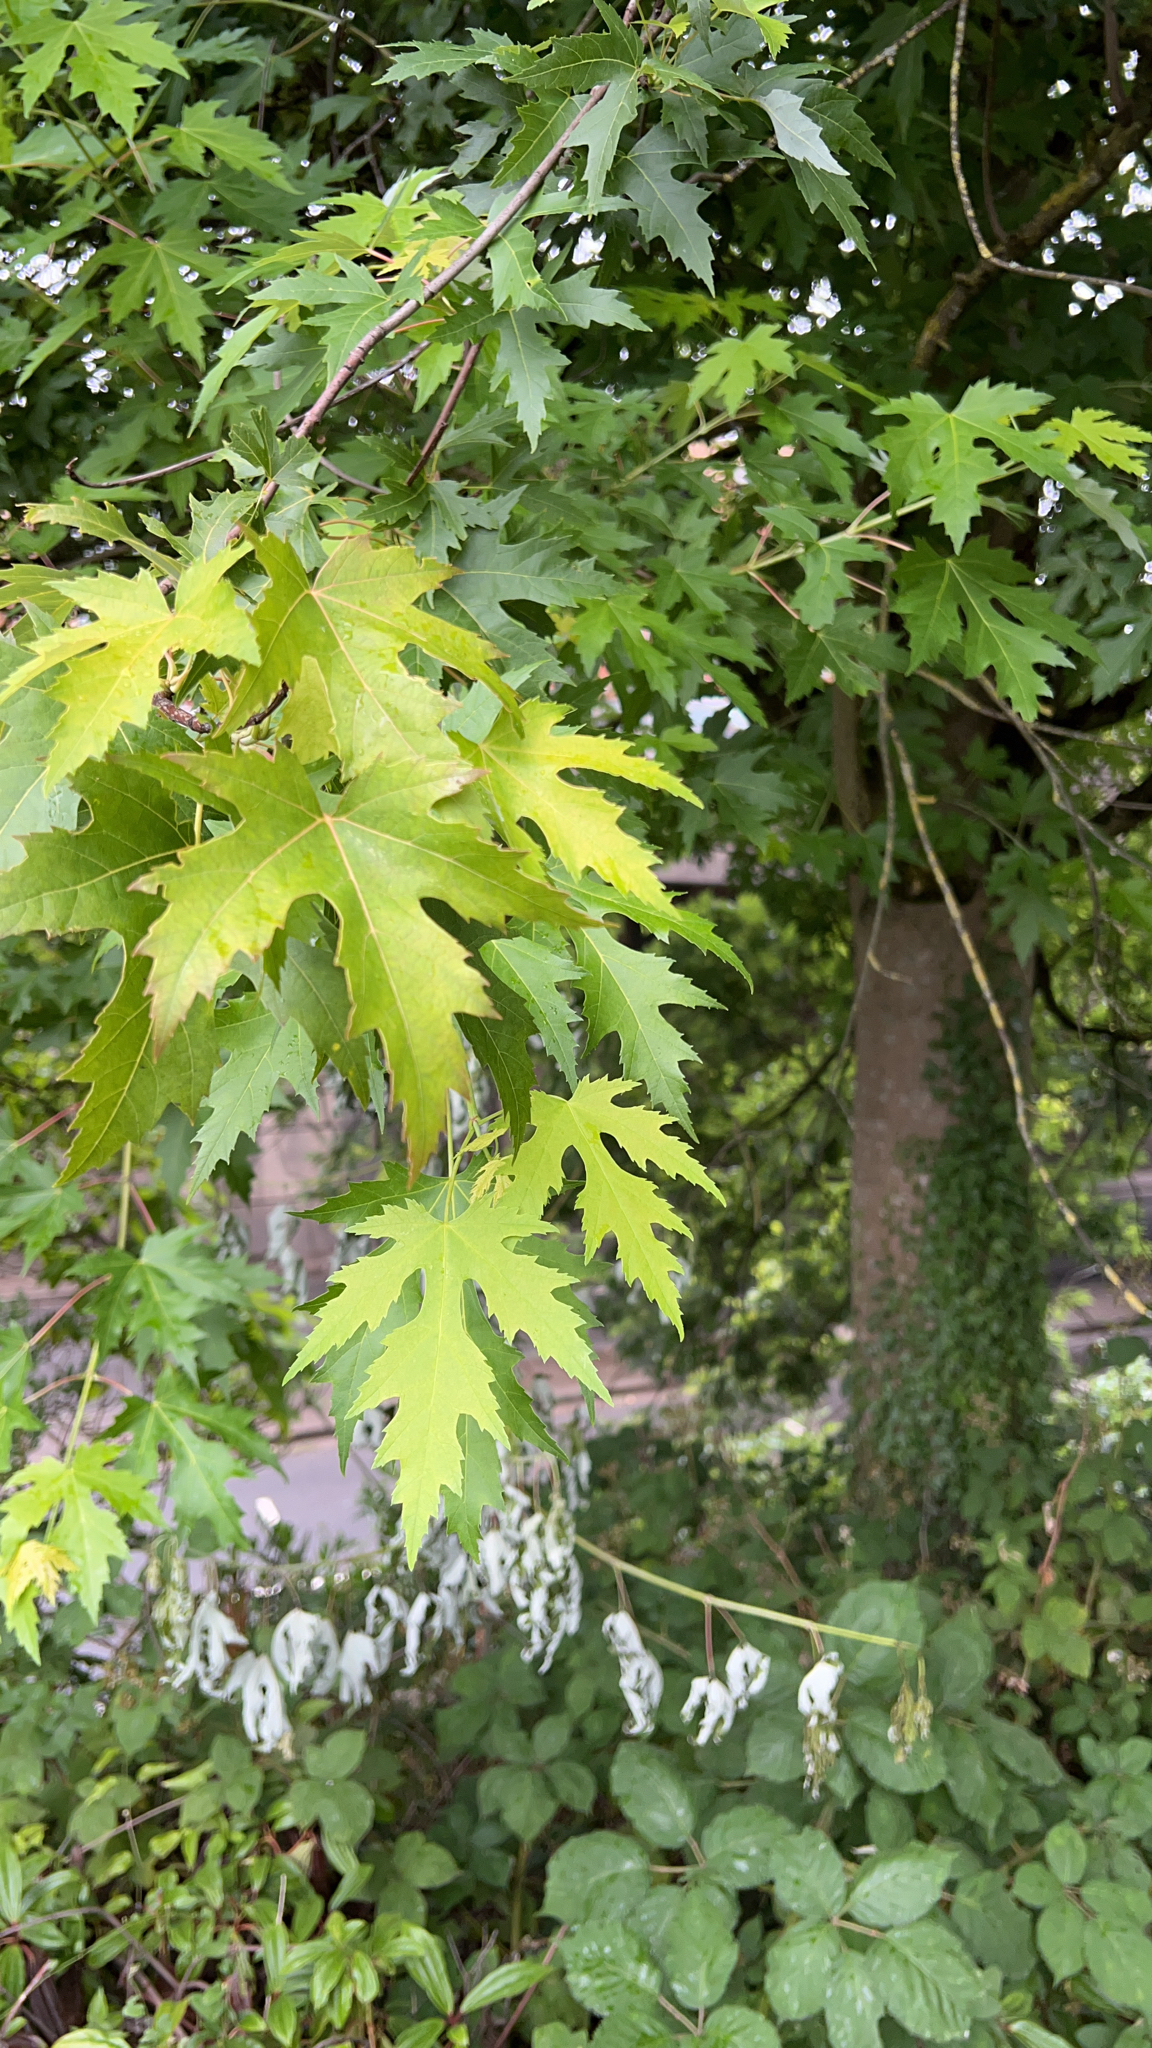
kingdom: Plantae
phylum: Tracheophyta
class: Magnoliopsida
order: Sapindales
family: Sapindaceae
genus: Acer
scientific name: Acer saccharinum
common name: Silver maple
